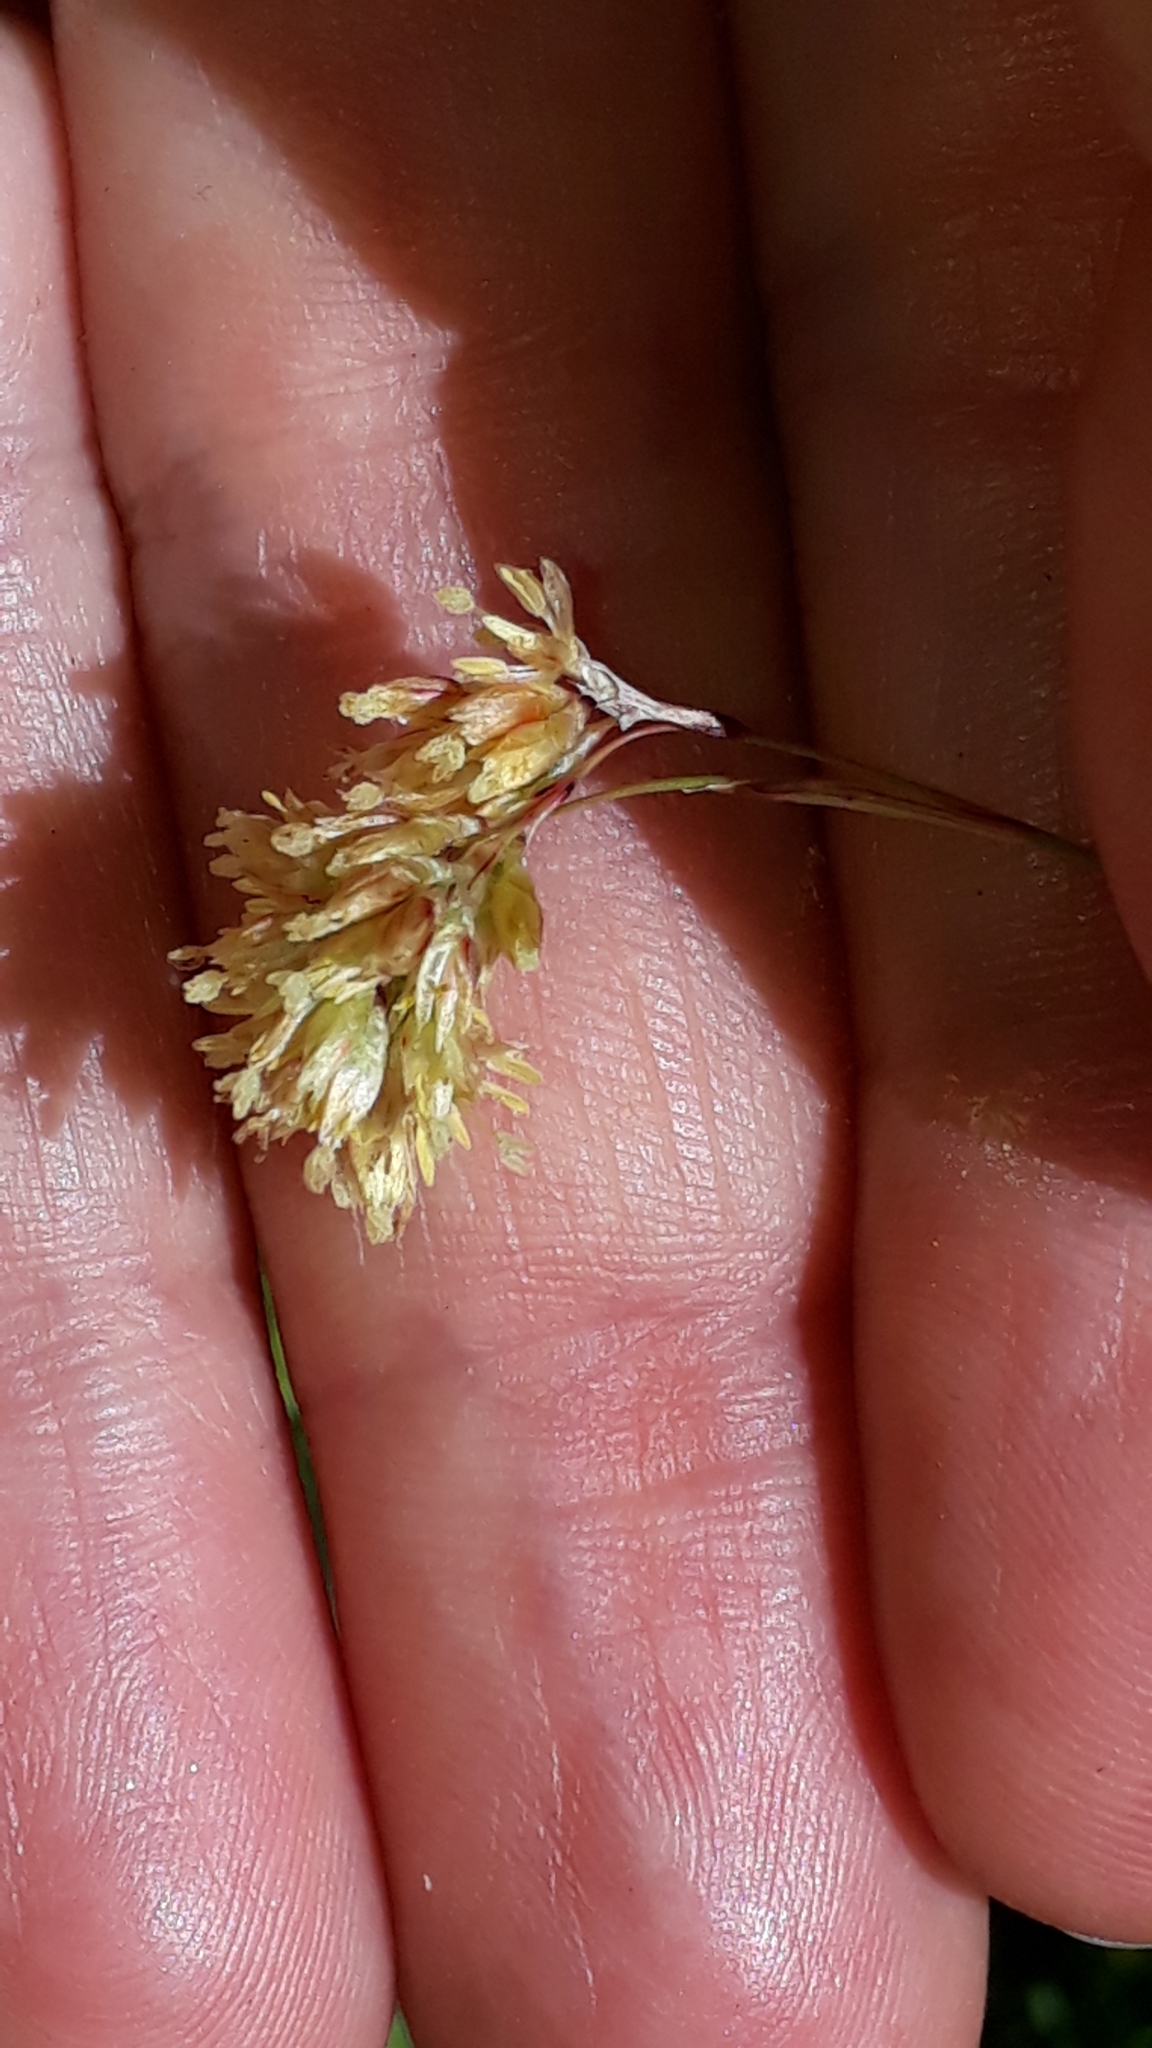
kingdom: Plantae
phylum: Tracheophyta
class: Liliopsida
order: Poales
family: Juncaceae
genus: Luzula
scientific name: Luzula lutea
